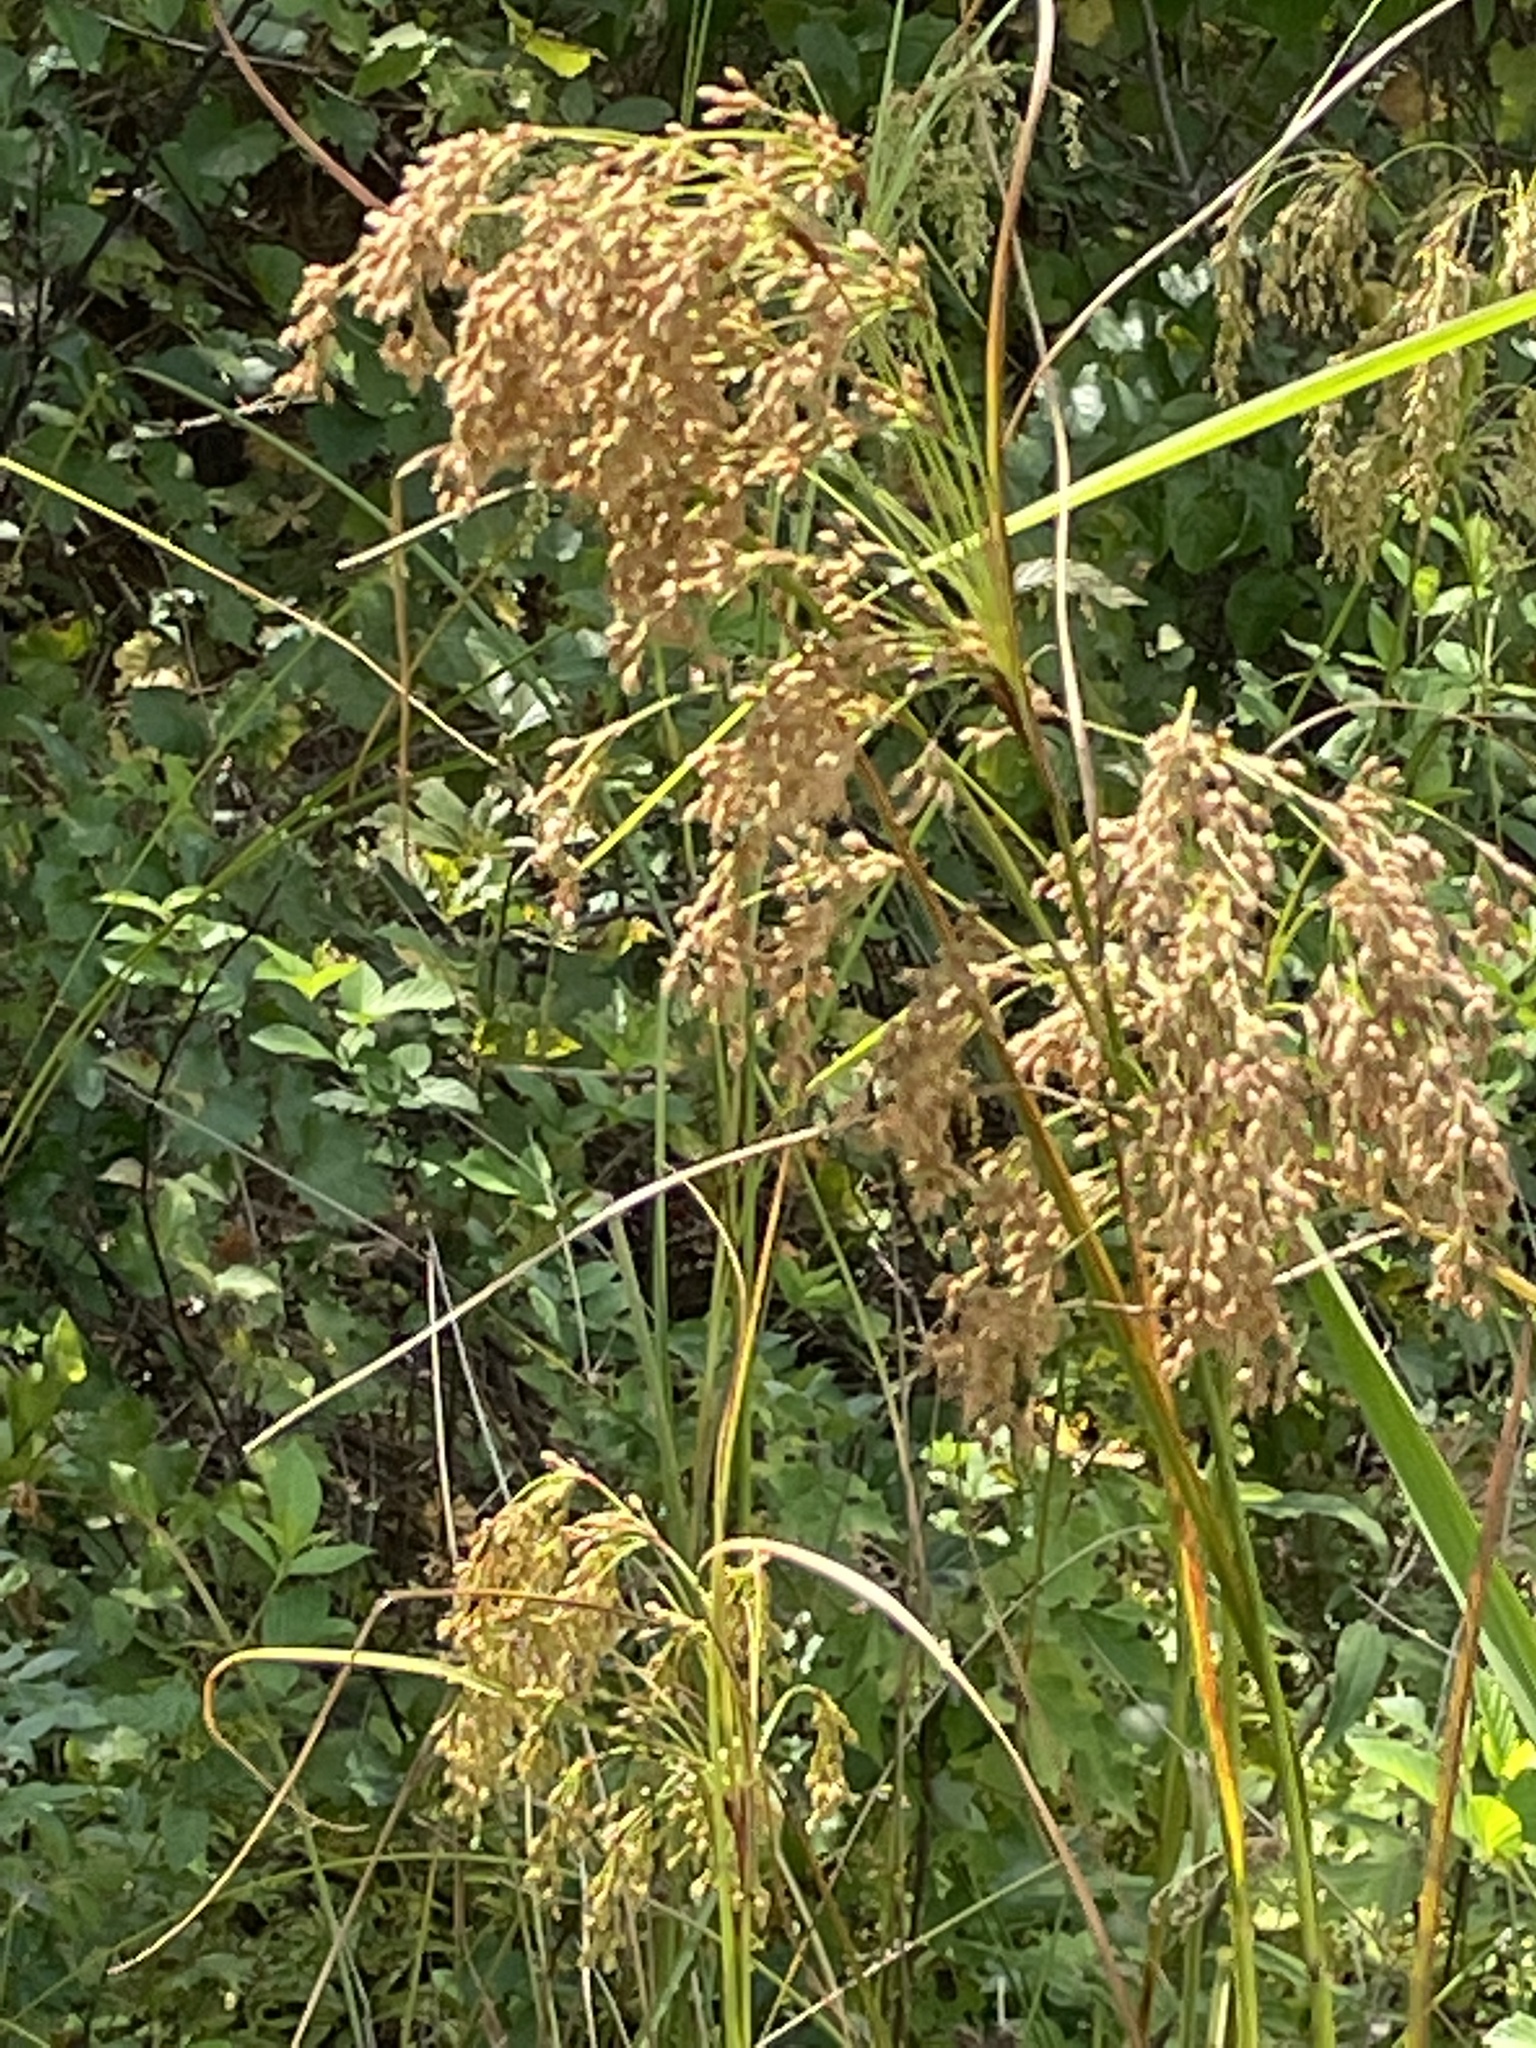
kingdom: Plantae
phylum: Tracheophyta
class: Liliopsida
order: Poales
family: Cyperaceae
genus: Scirpus
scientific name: Scirpus cyperinus
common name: Black-sheathed bulrush
